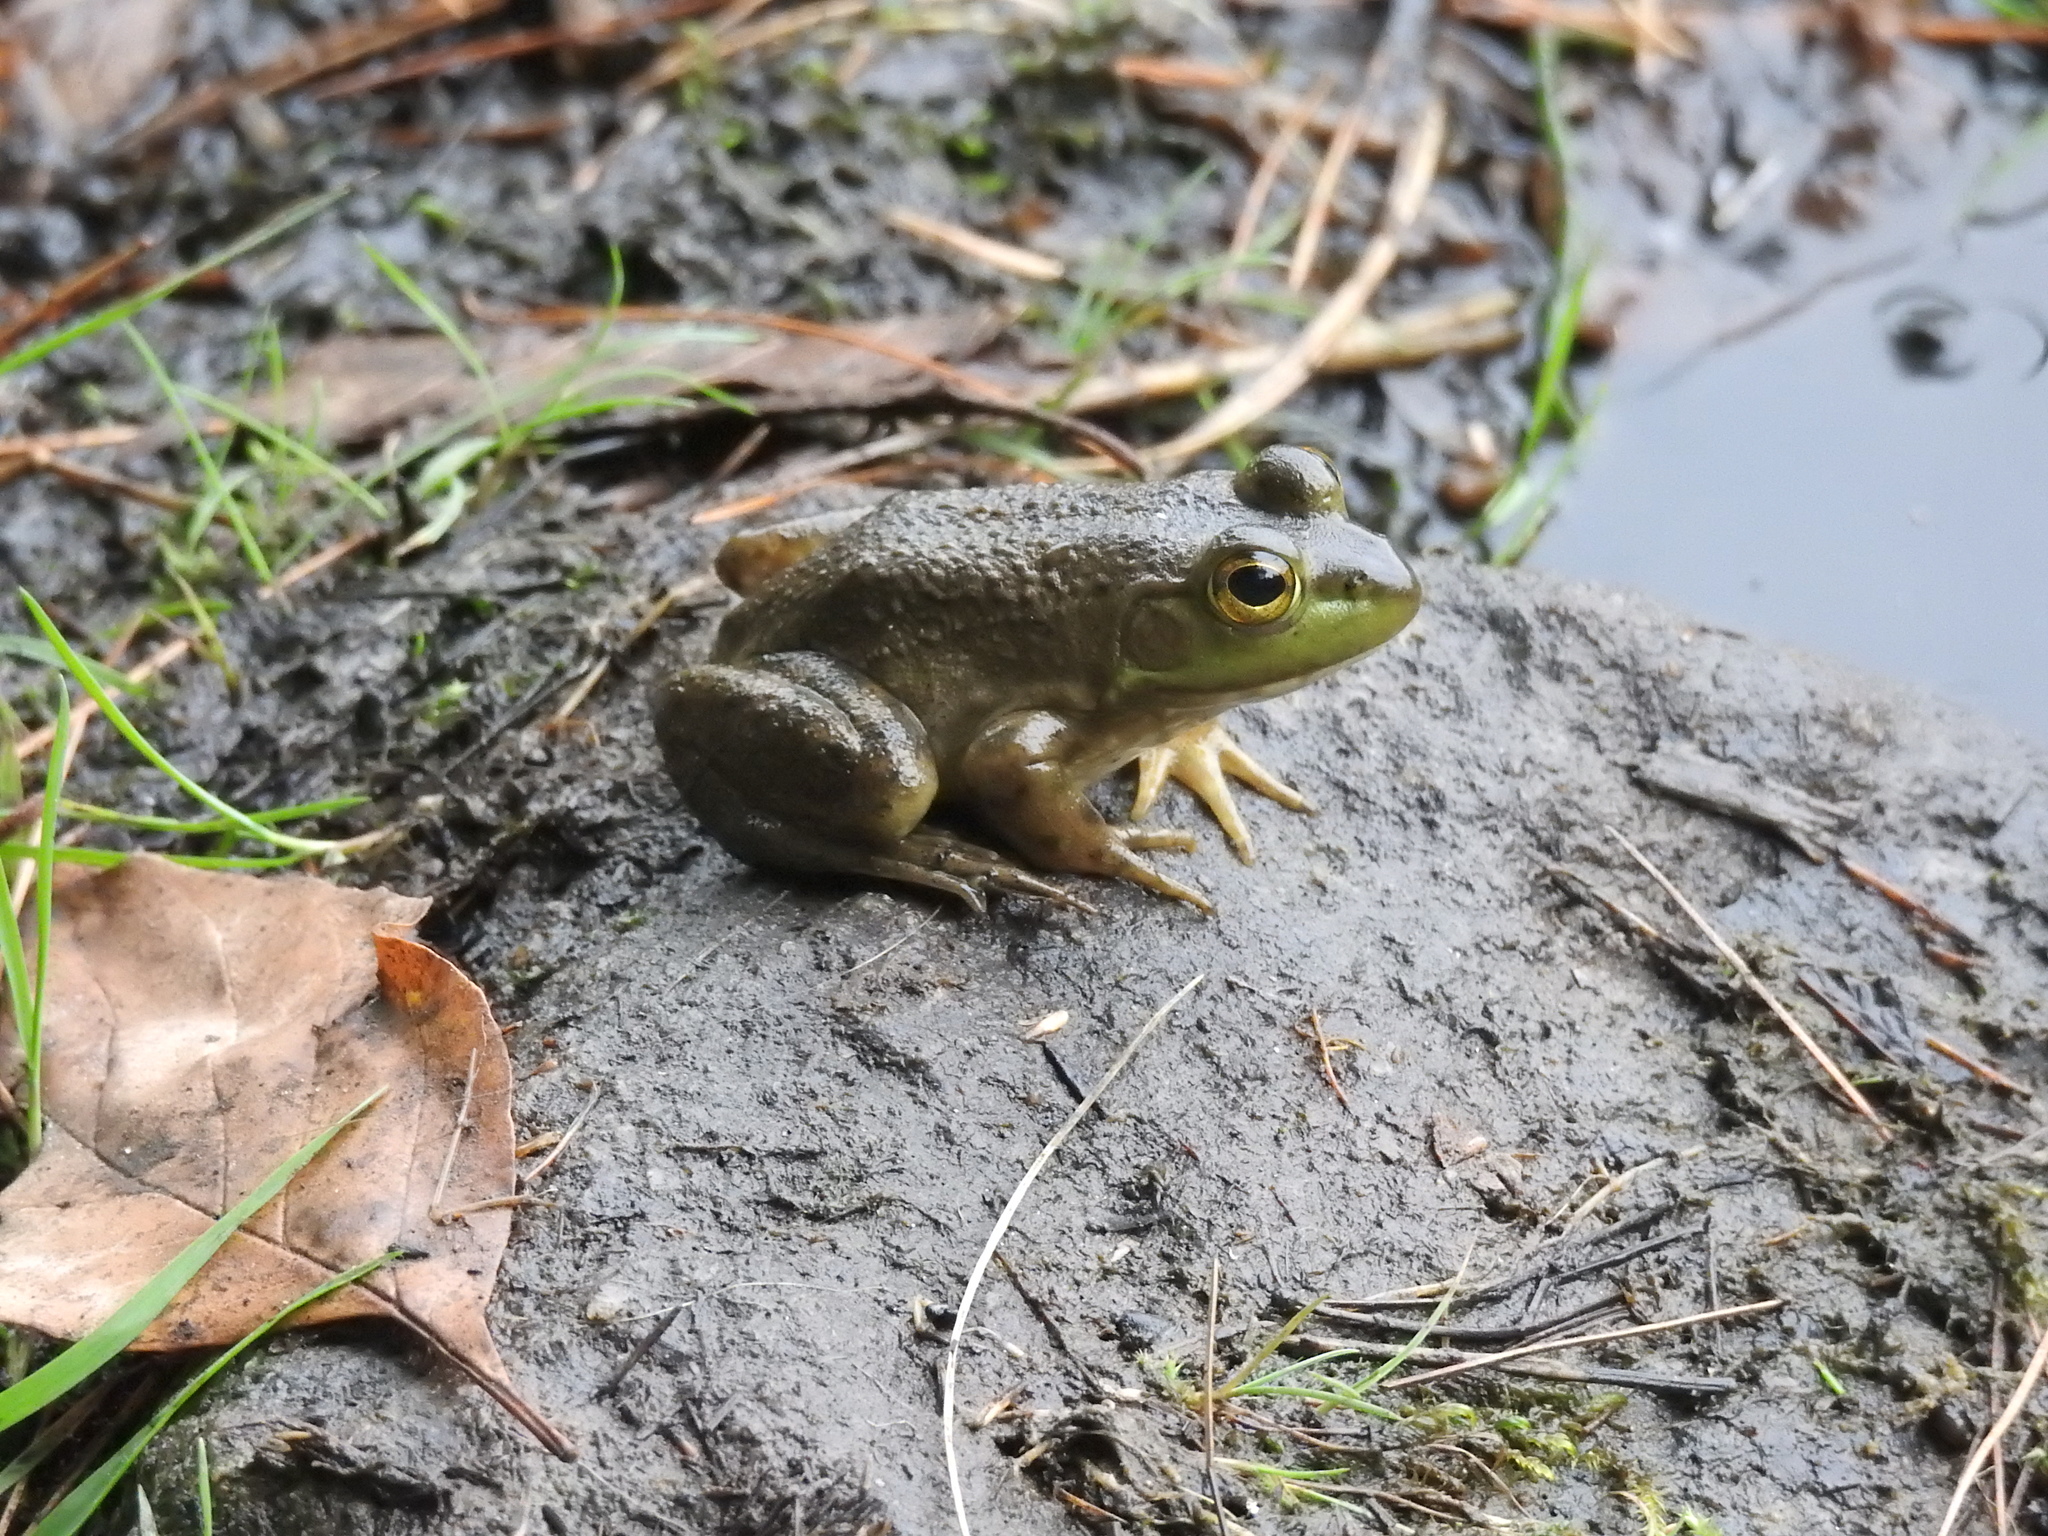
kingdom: Animalia
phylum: Chordata
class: Amphibia
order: Anura
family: Ranidae
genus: Lithobates
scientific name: Lithobates catesbeianus
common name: American bullfrog
